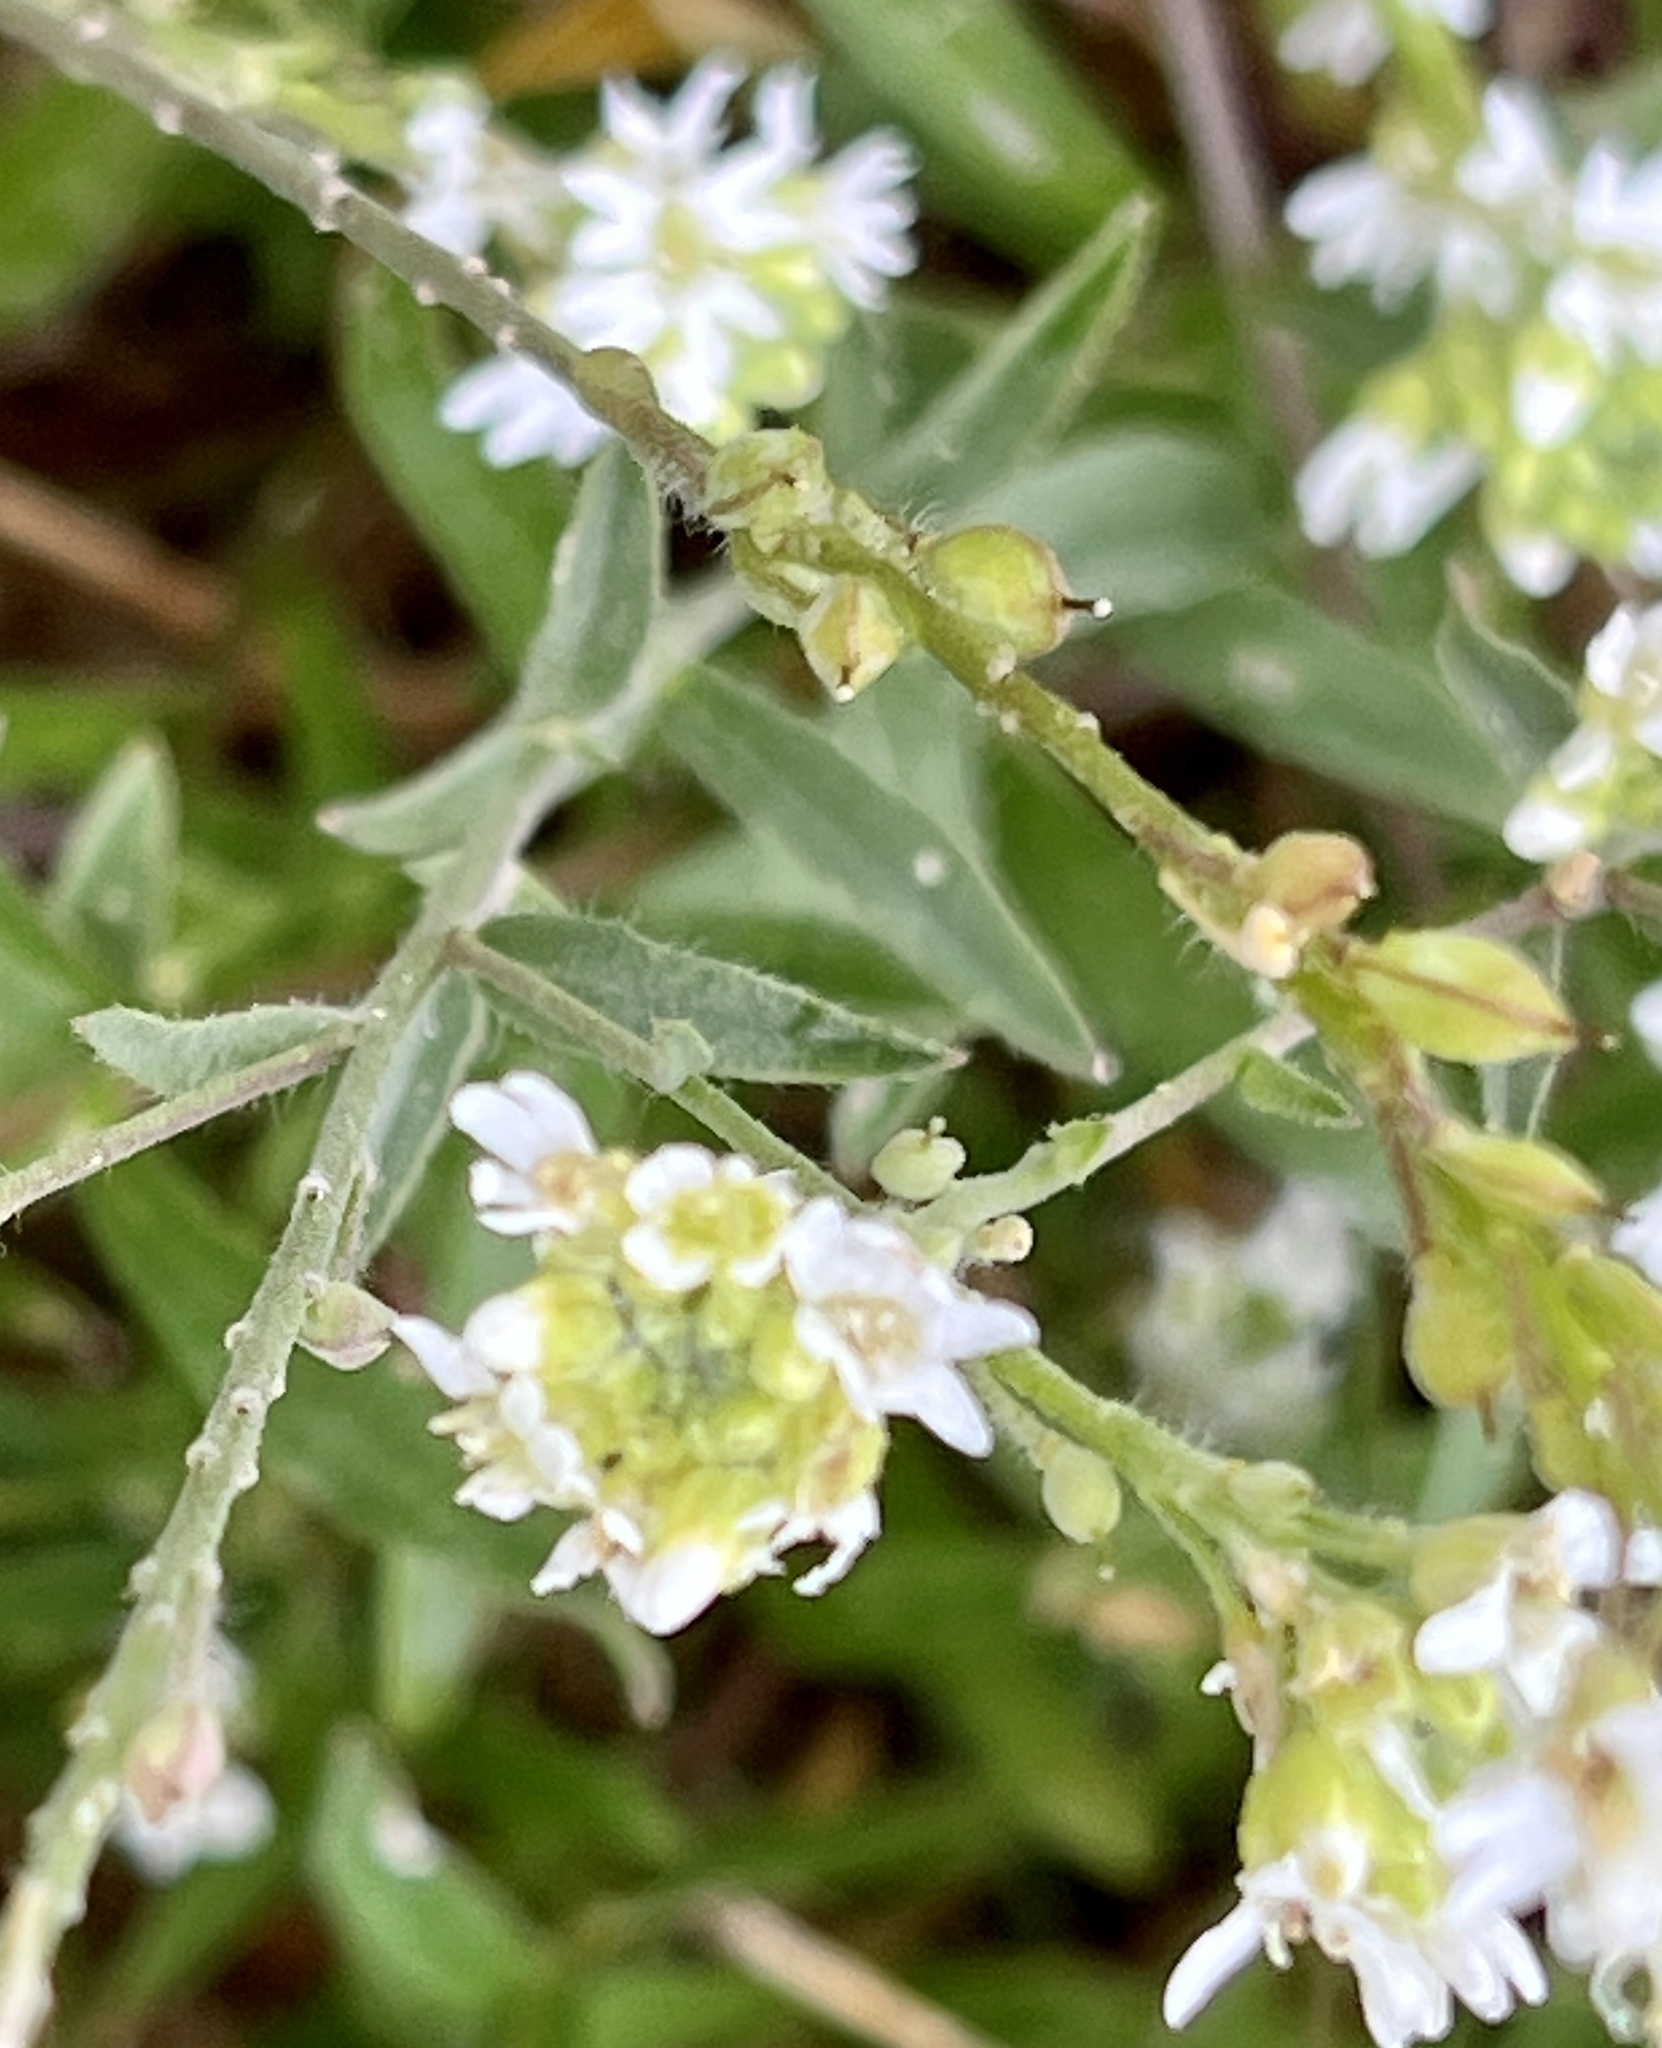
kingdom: Plantae
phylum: Tracheophyta
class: Magnoliopsida
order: Brassicales
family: Brassicaceae
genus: Berteroa
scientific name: Berteroa incana
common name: Hoary alison
